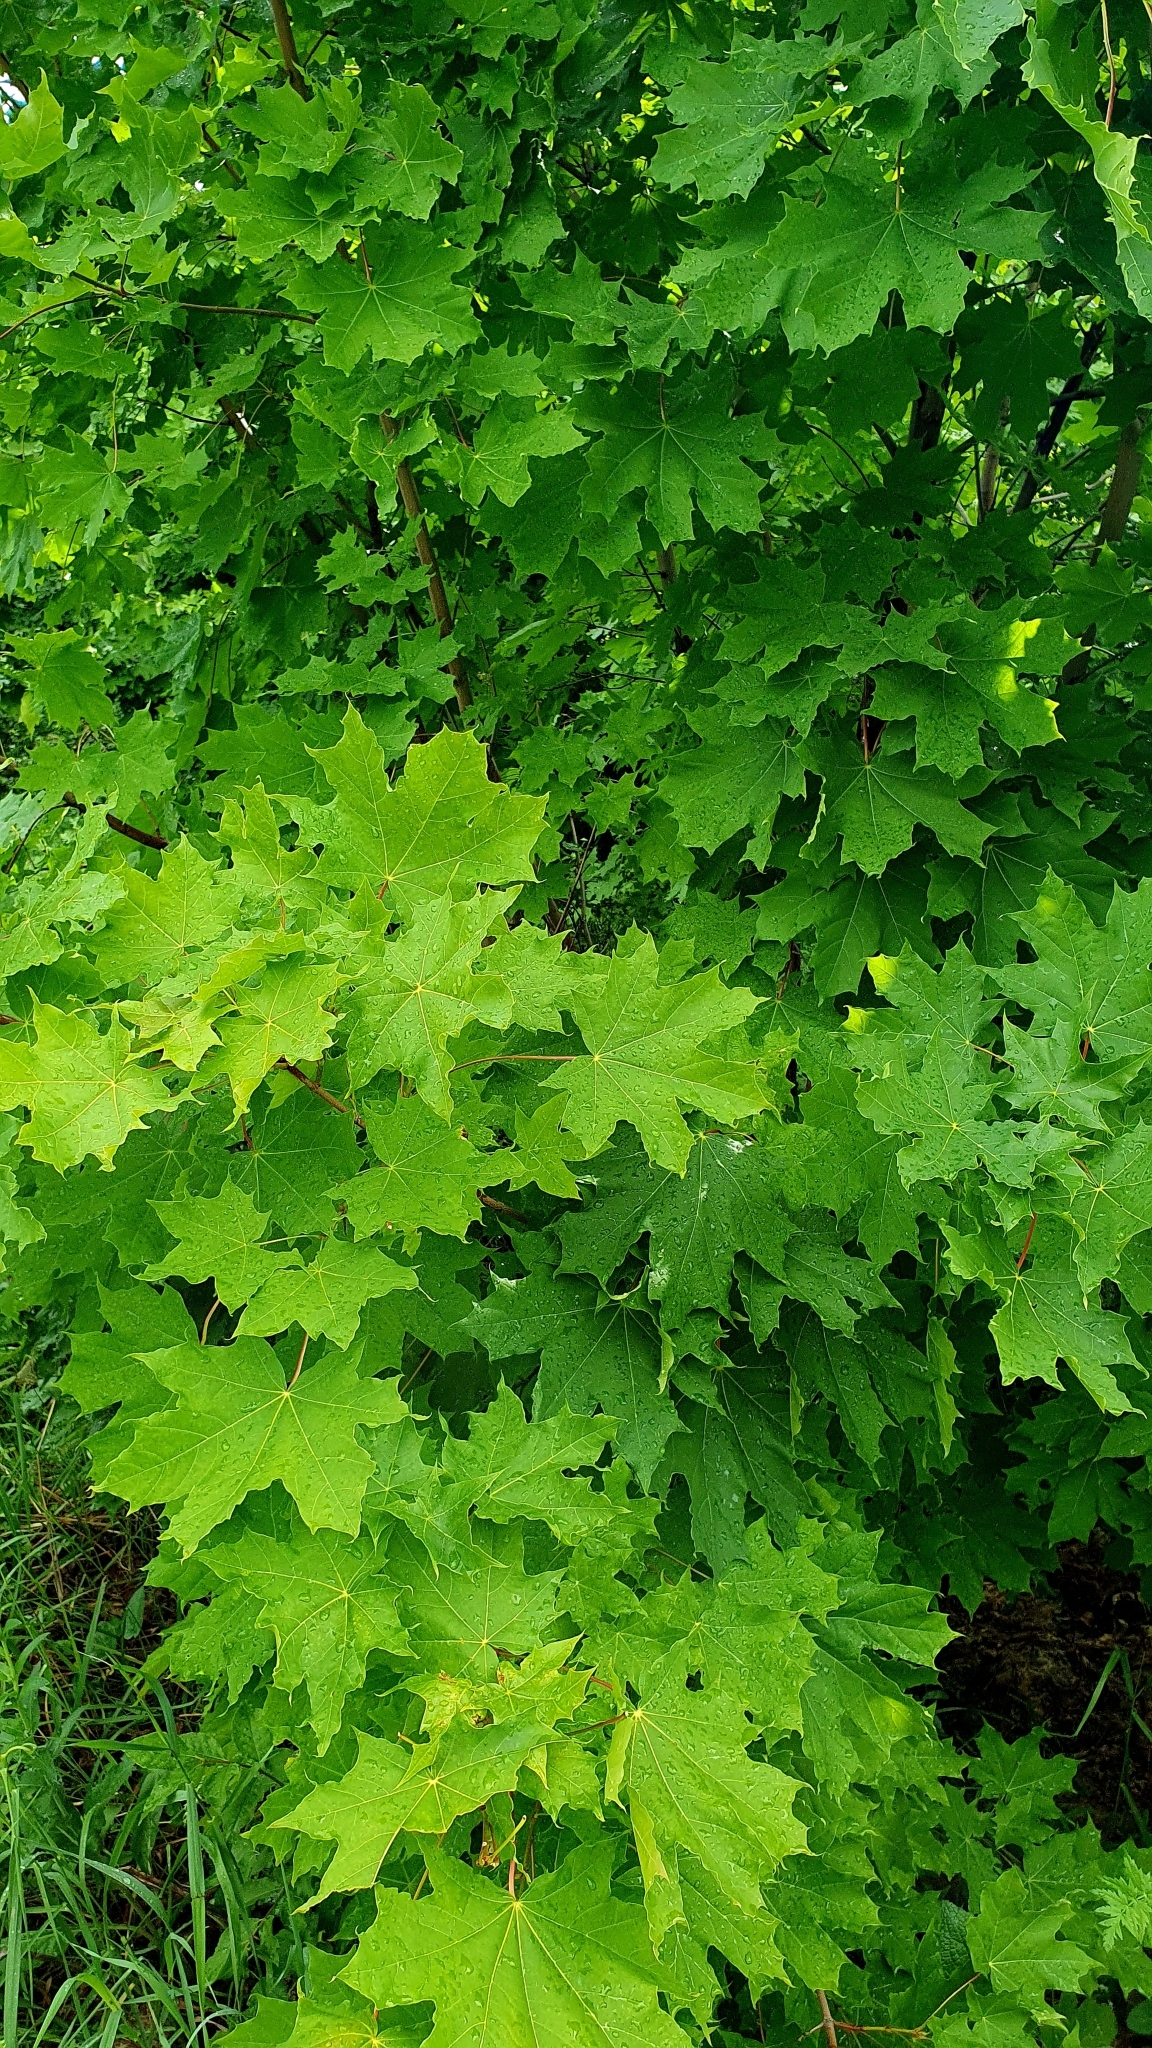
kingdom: Plantae
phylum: Tracheophyta
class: Magnoliopsida
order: Sapindales
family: Sapindaceae
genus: Acer
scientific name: Acer platanoides
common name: Norway maple
